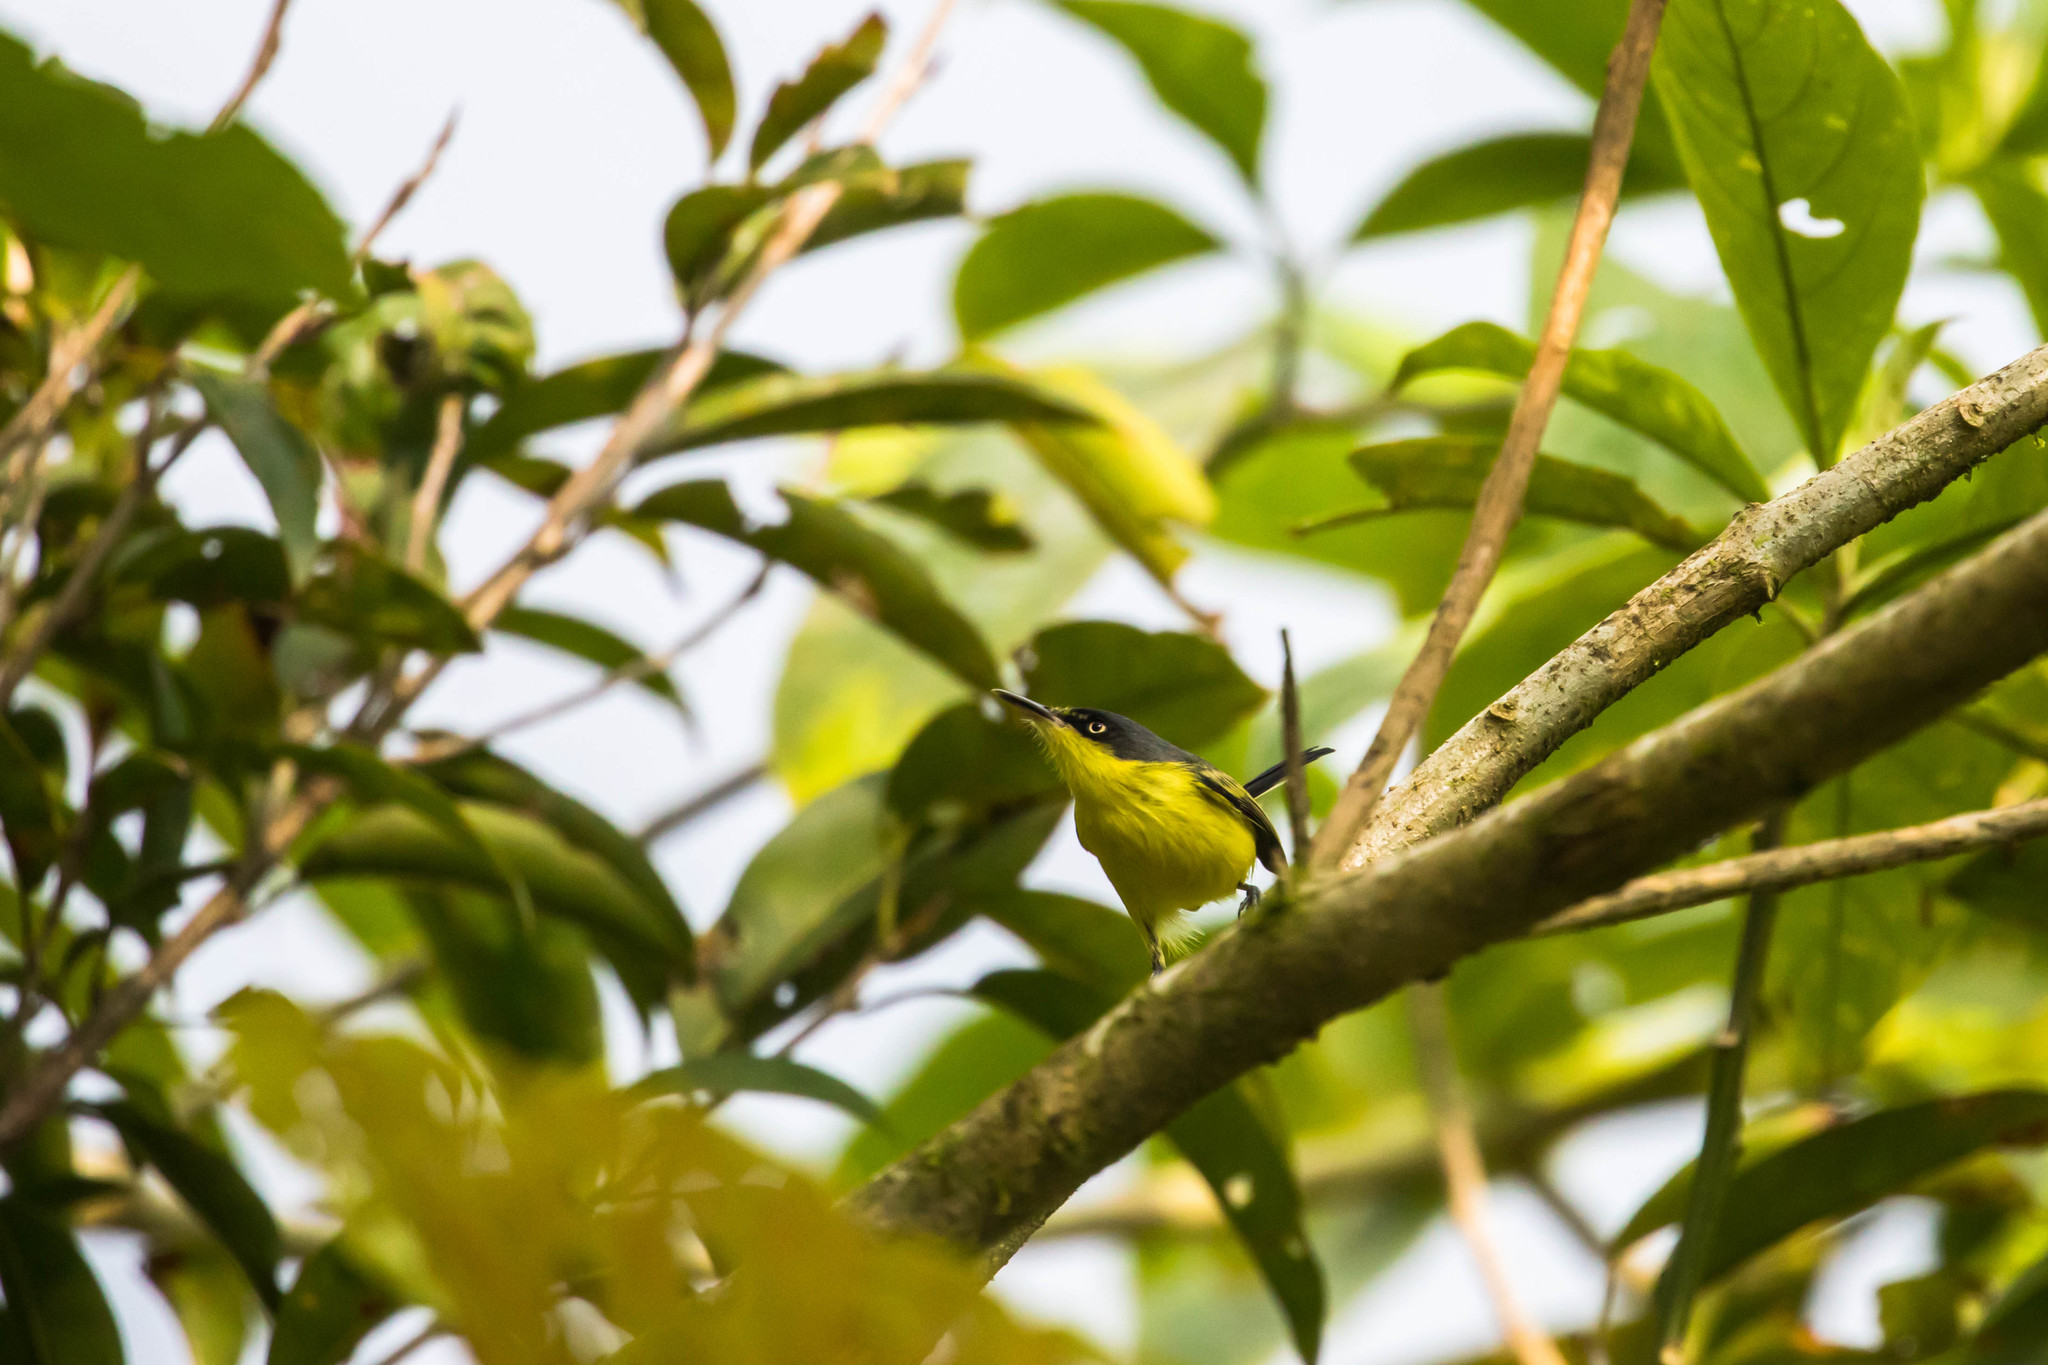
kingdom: Animalia
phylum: Chordata
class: Aves
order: Passeriformes
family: Tyrannidae
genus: Todirostrum
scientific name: Todirostrum cinereum
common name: Common tody-flycatcher
